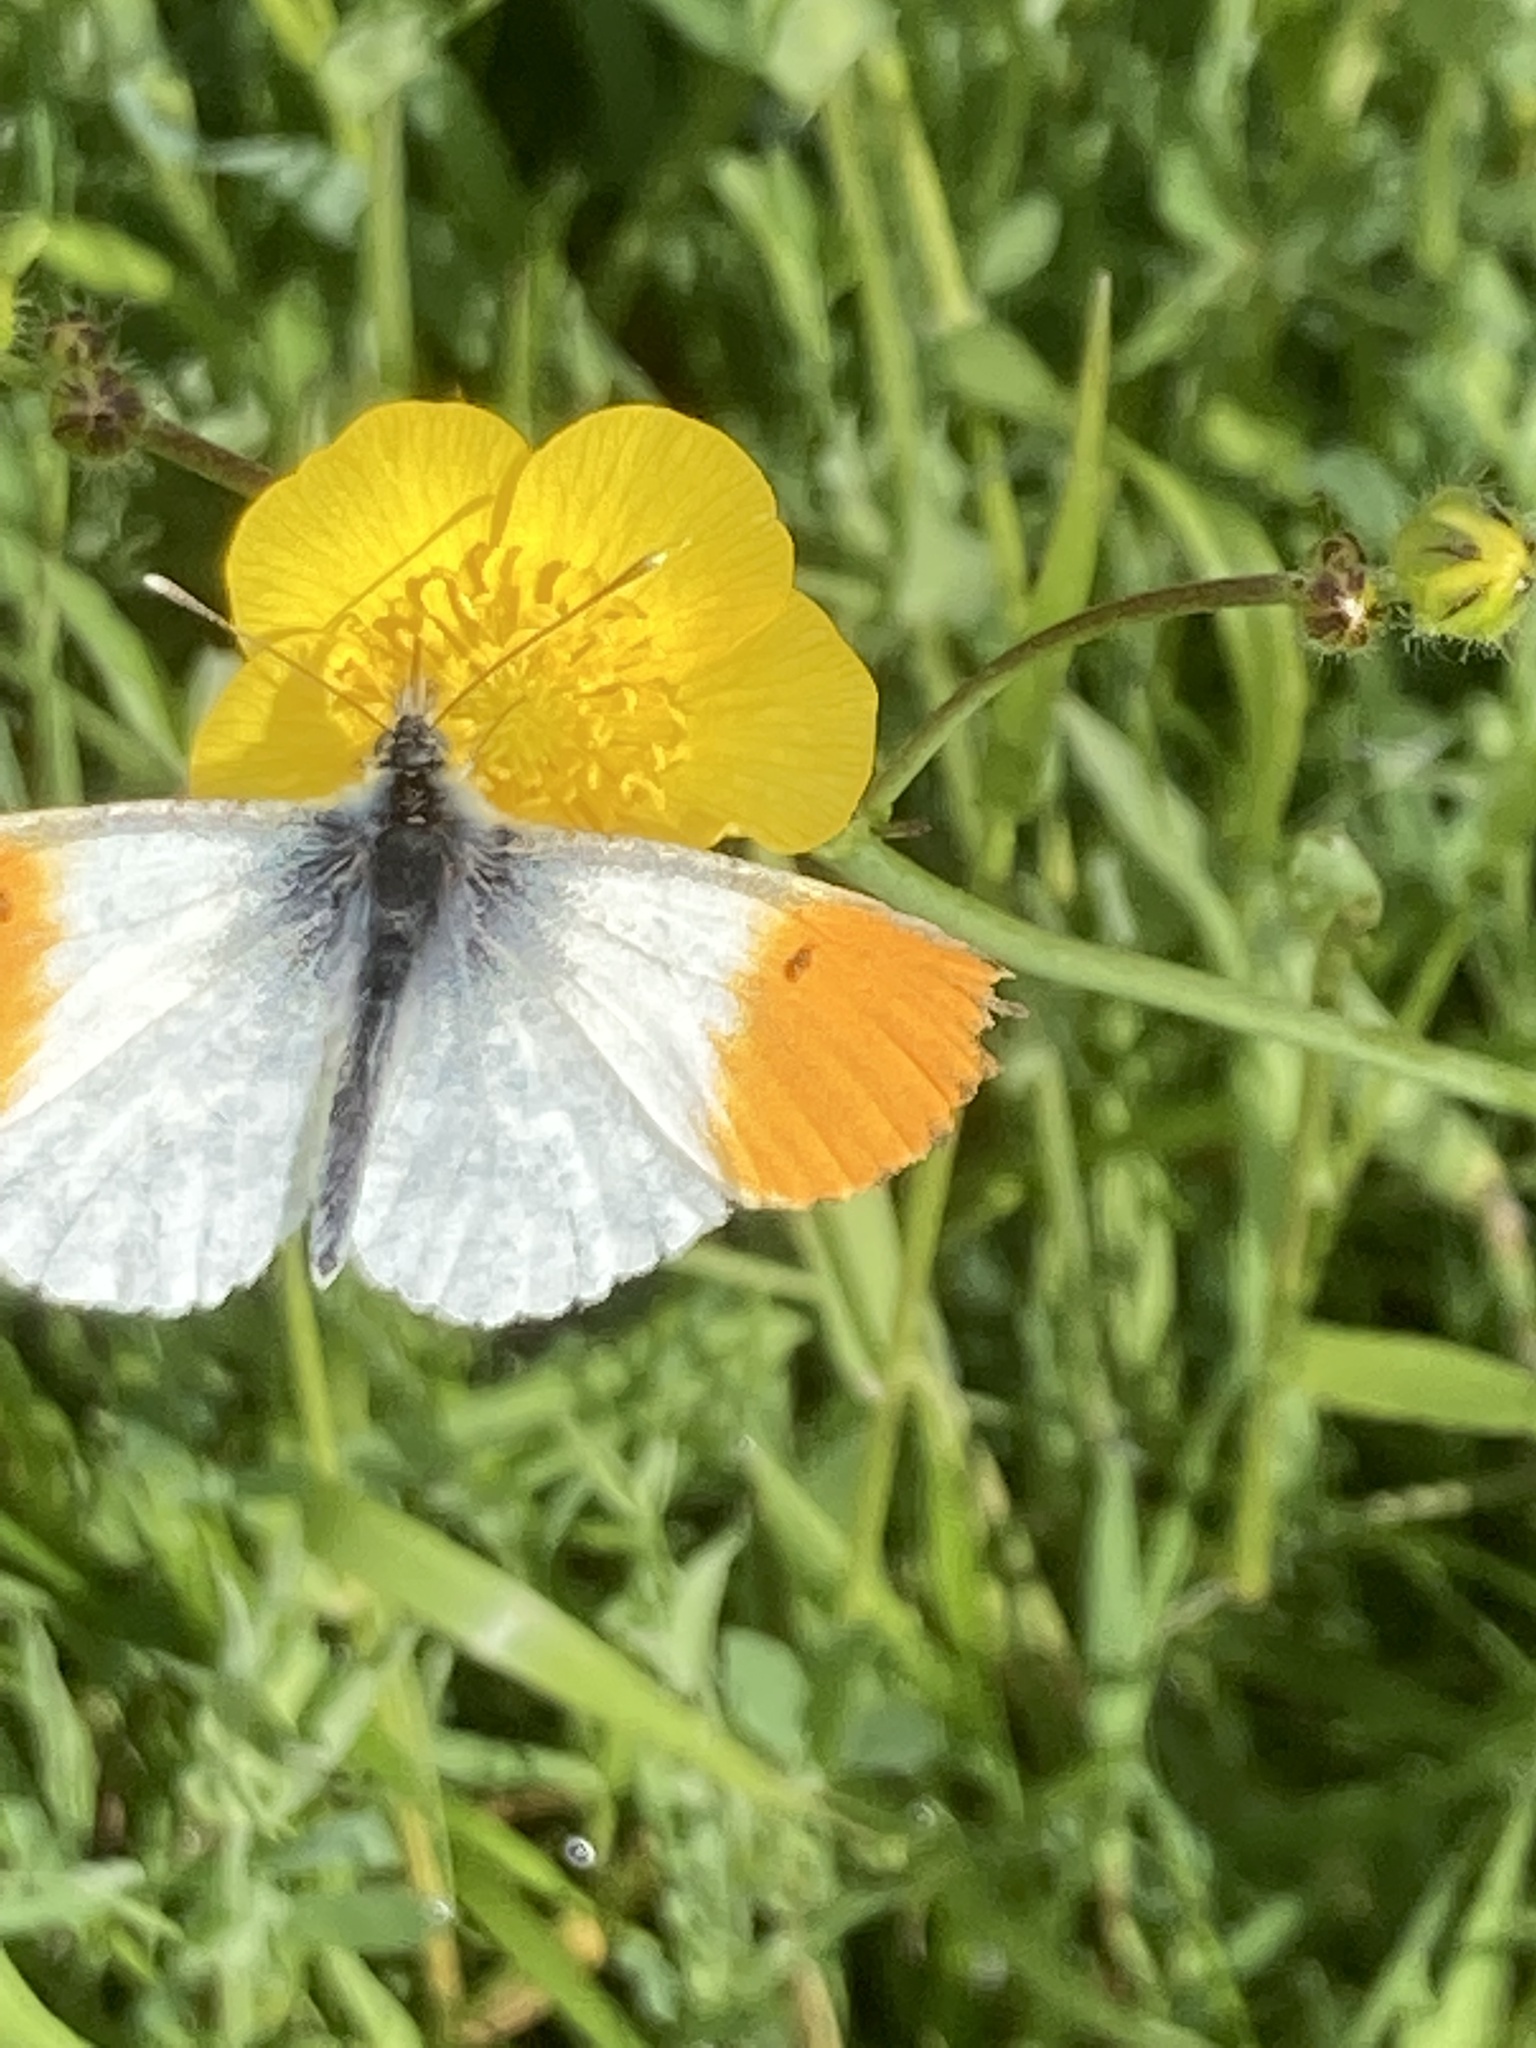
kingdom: Animalia
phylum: Arthropoda
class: Insecta
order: Lepidoptera
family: Pieridae
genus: Anthocharis
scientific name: Anthocharis cardamines
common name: Orange-tip
